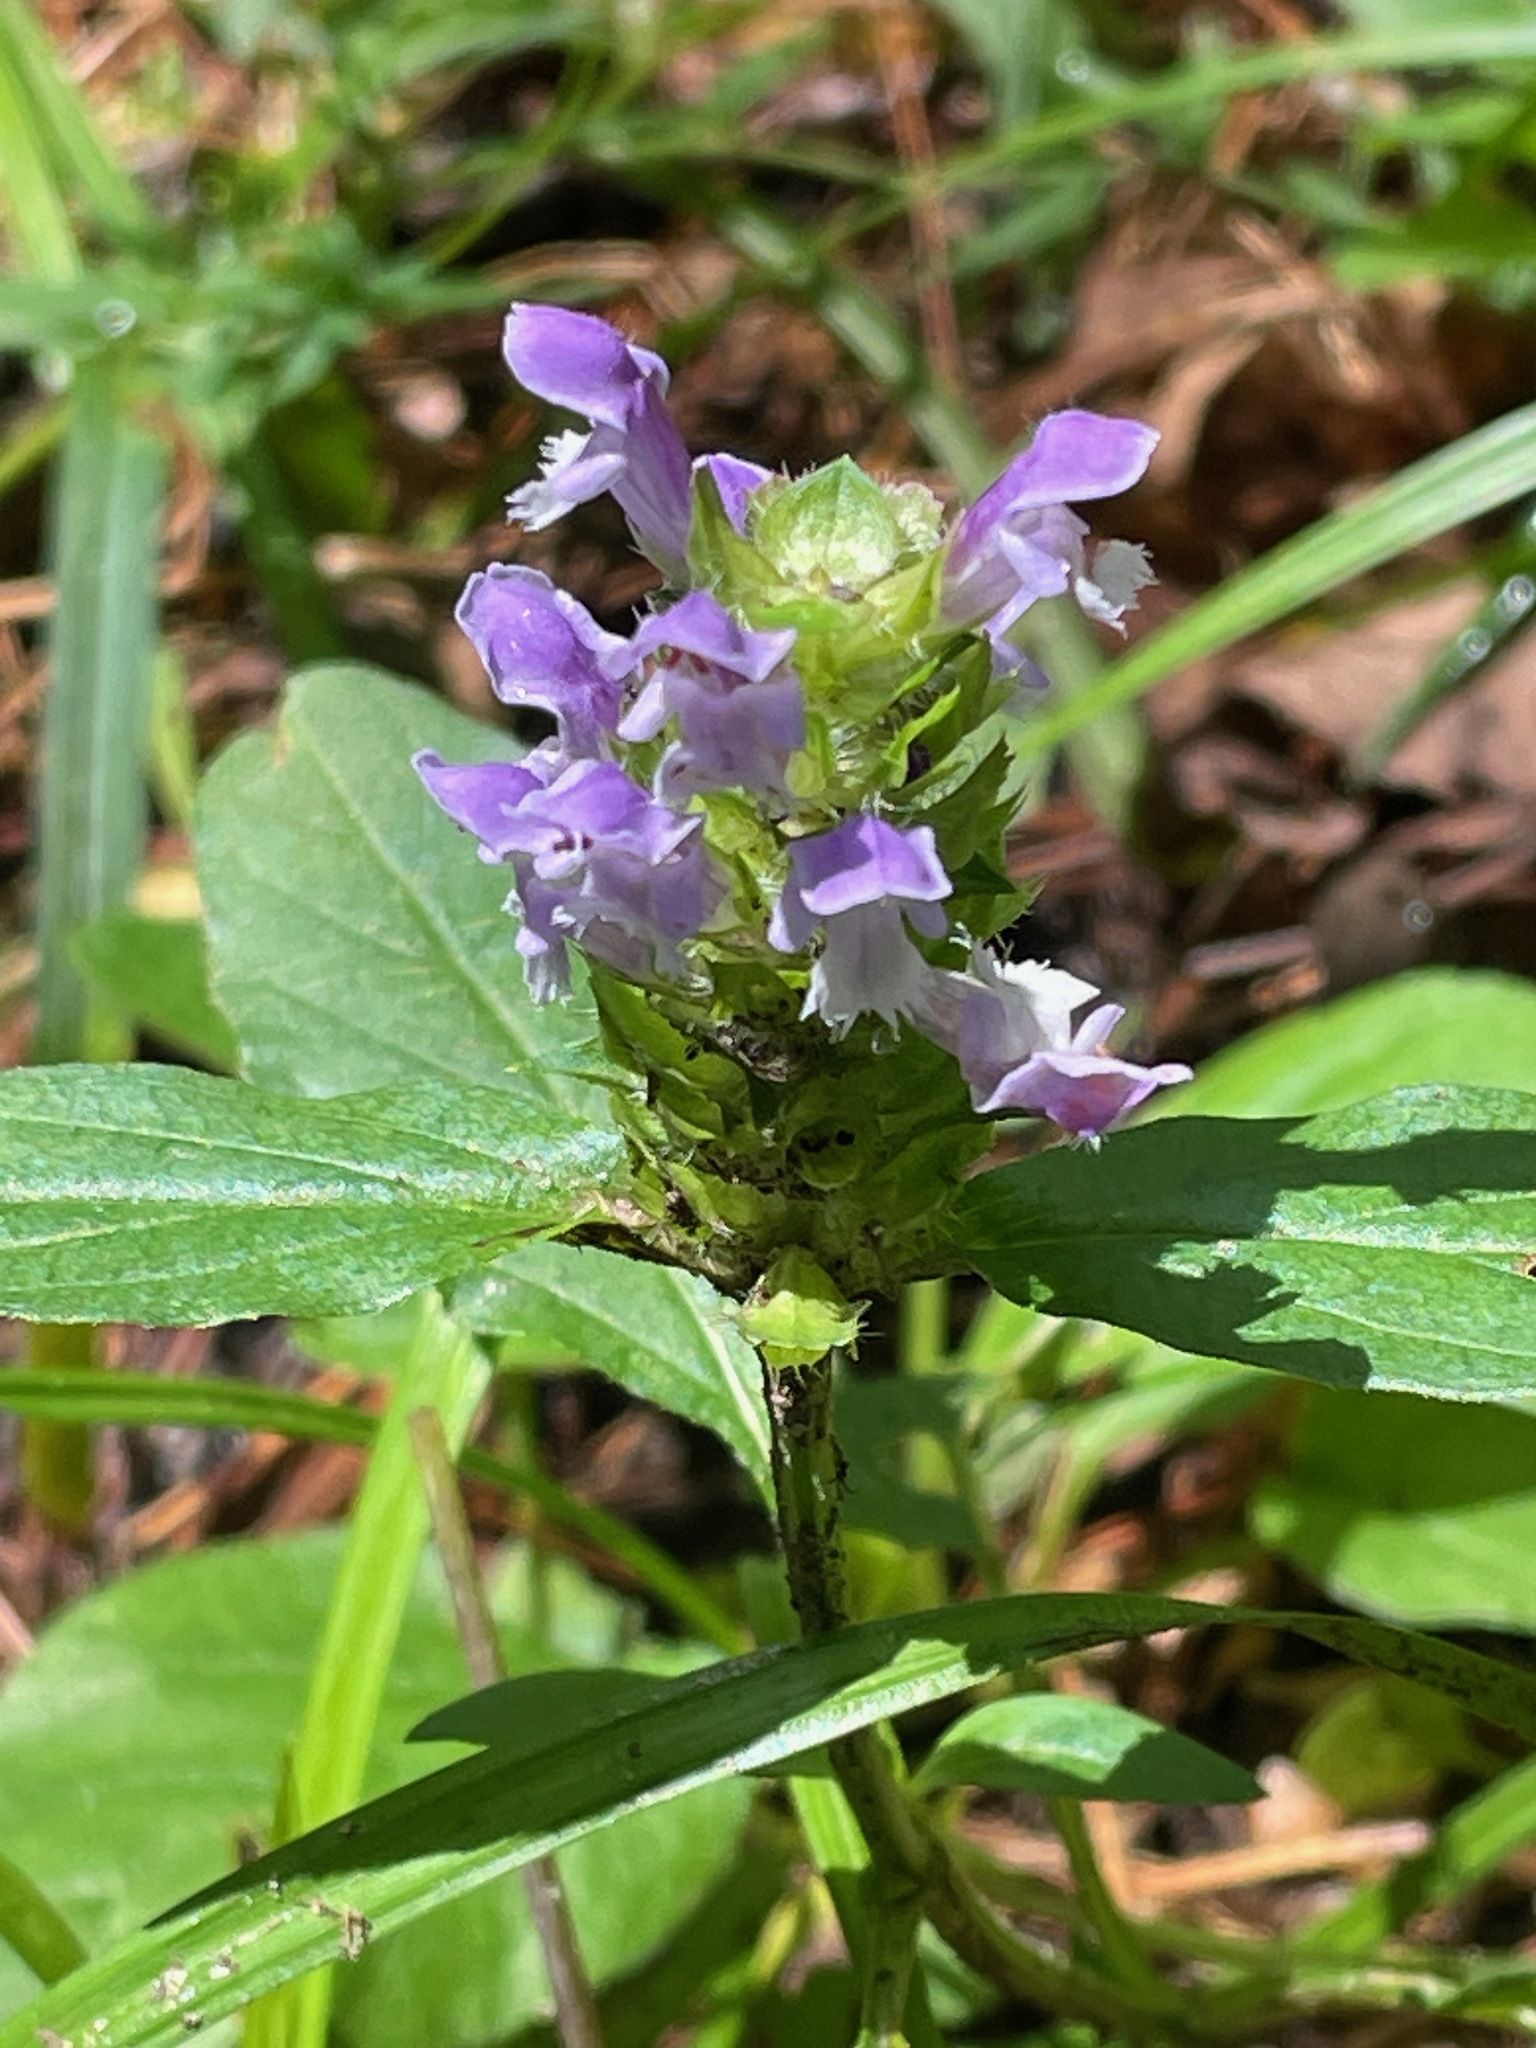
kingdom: Plantae
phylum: Tracheophyta
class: Magnoliopsida
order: Lamiales
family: Lamiaceae
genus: Prunella
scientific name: Prunella vulgaris
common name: Heal-all
